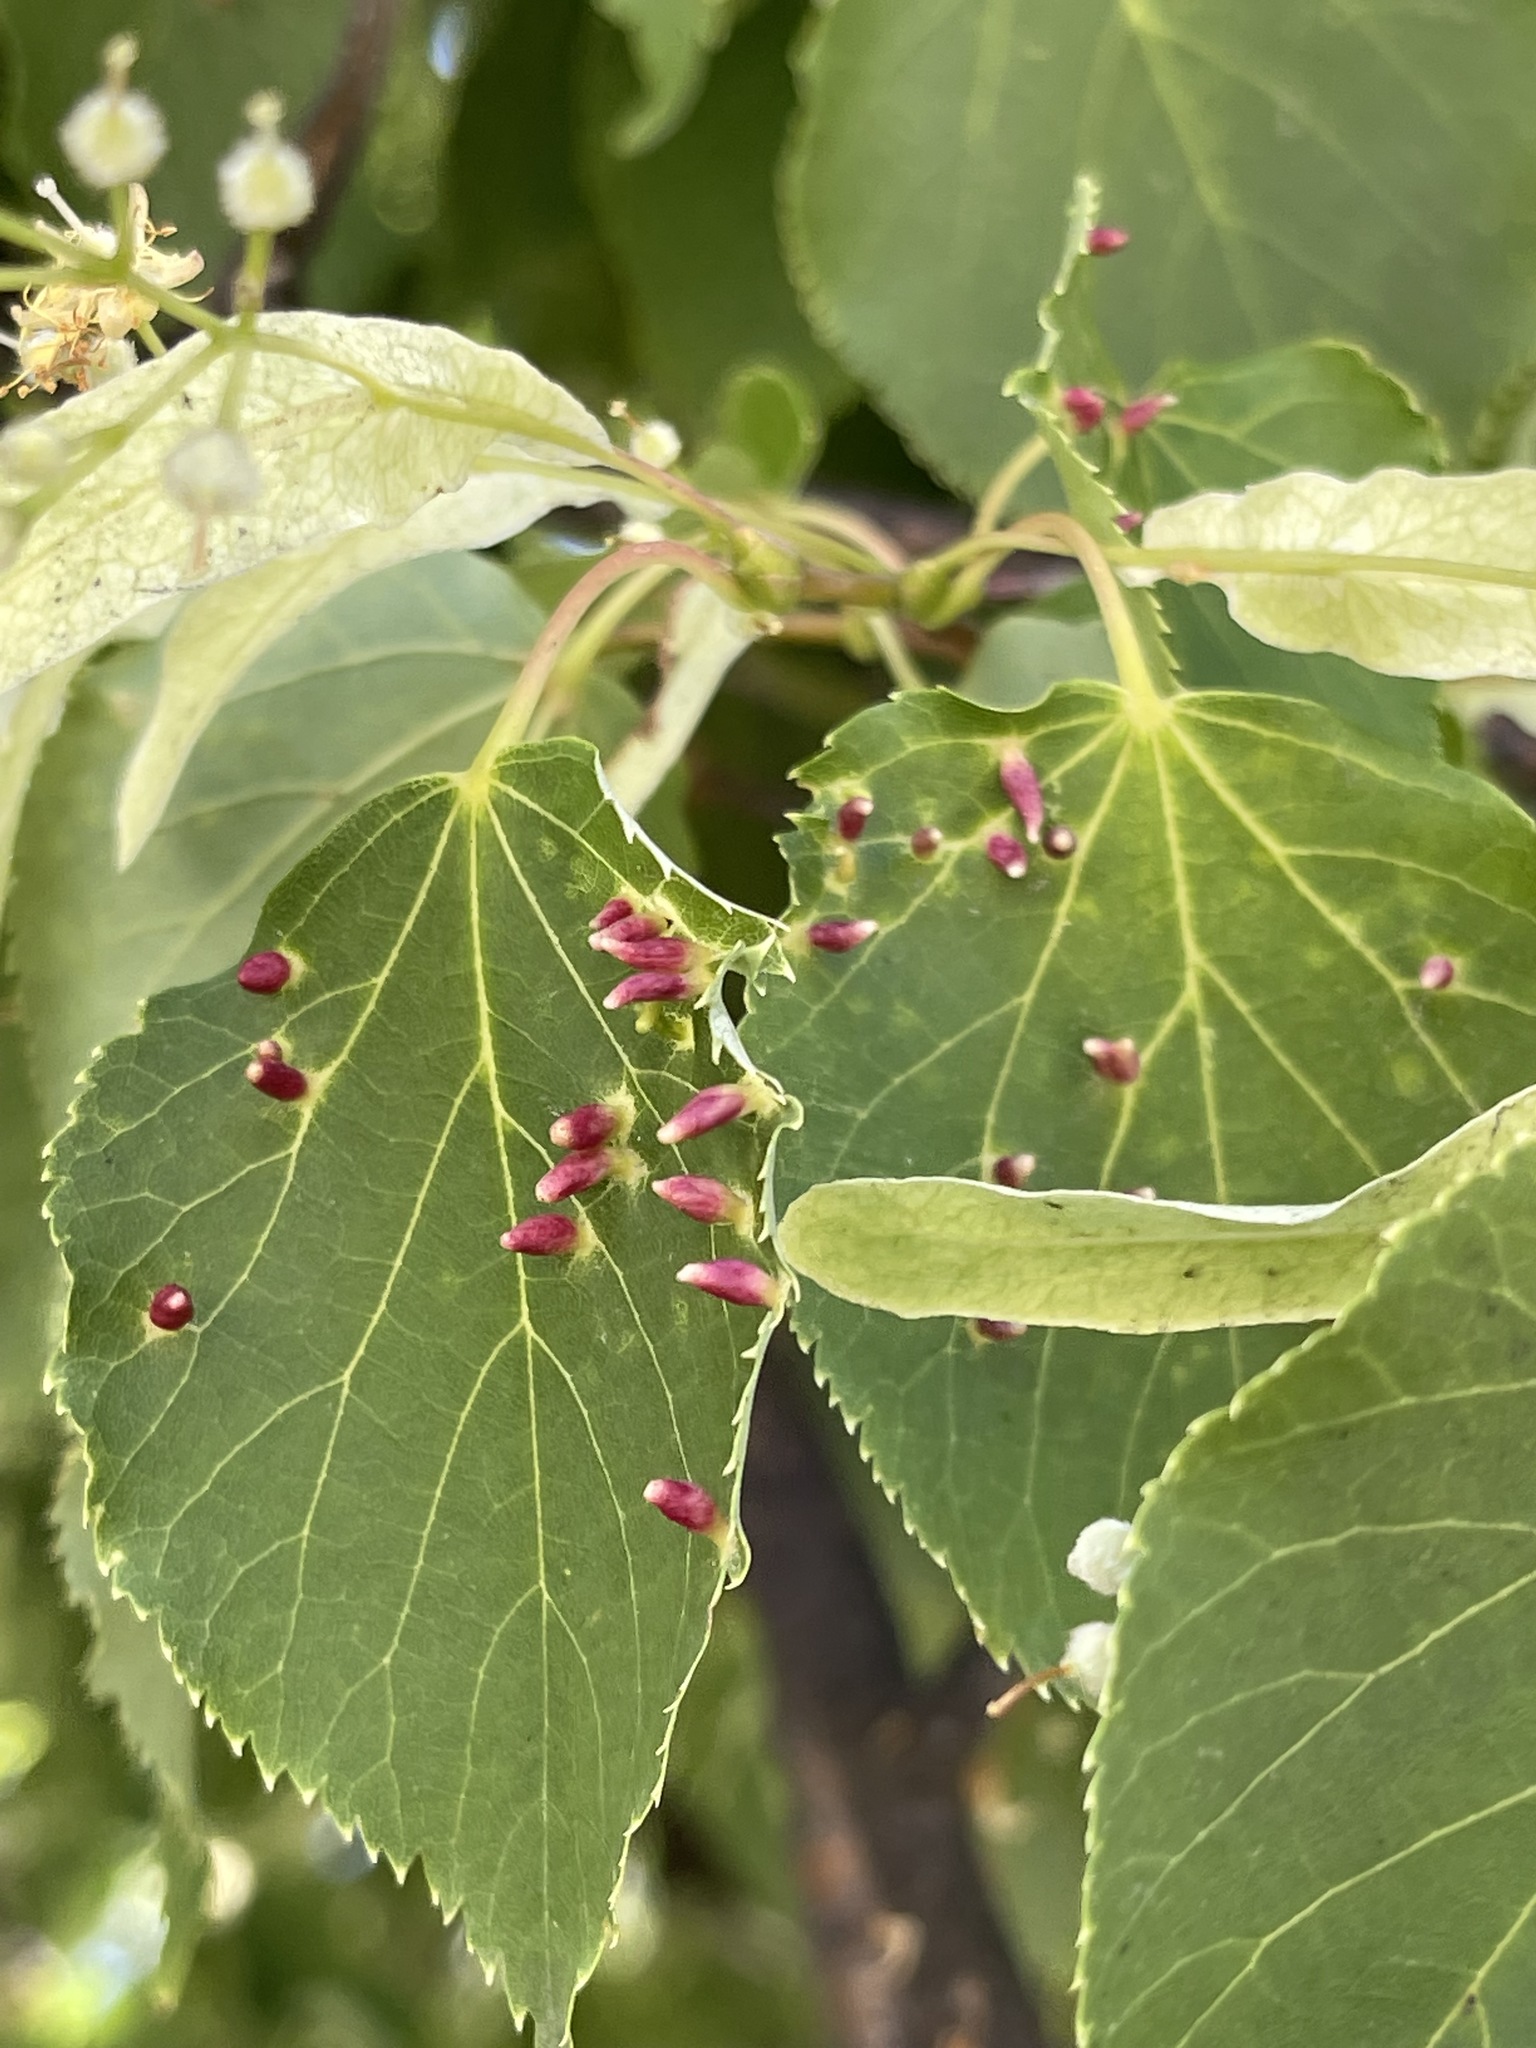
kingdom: Animalia
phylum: Arthropoda
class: Arachnida
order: Trombidiformes
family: Eriophyidae
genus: Eriophyes
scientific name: Eriophyes tiliae
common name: Red nail gall mite
